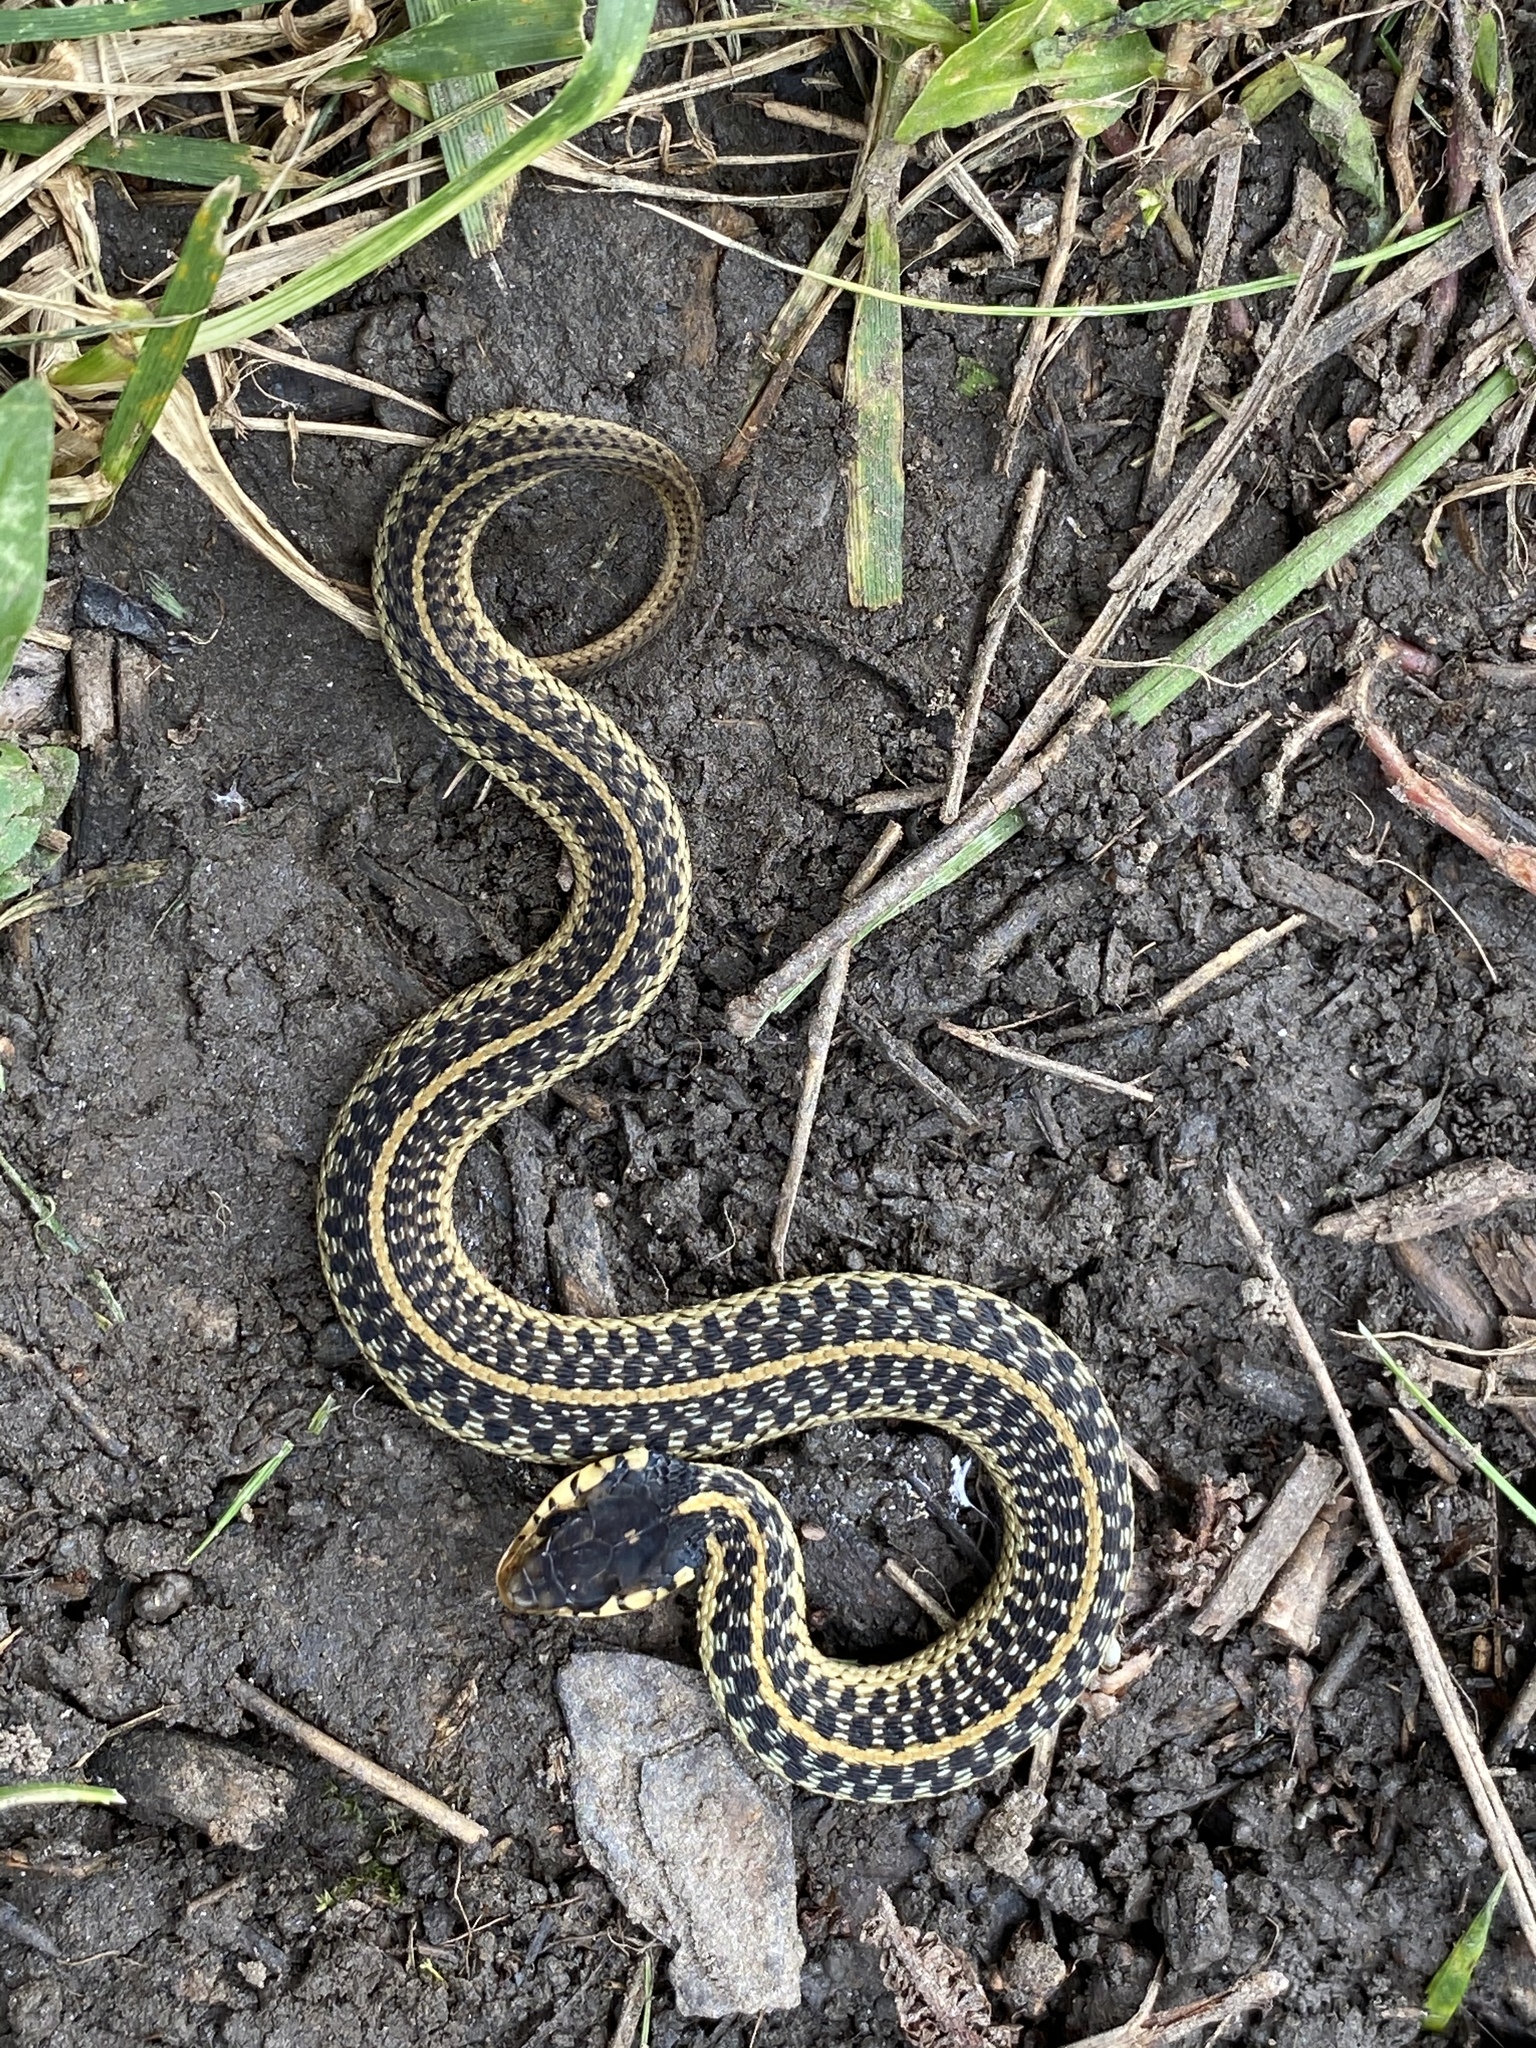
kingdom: Animalia
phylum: Chordata
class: Squamata
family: Colubridae
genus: Thamnophis
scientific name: Thamnophis sirtalis
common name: Common garter snake
